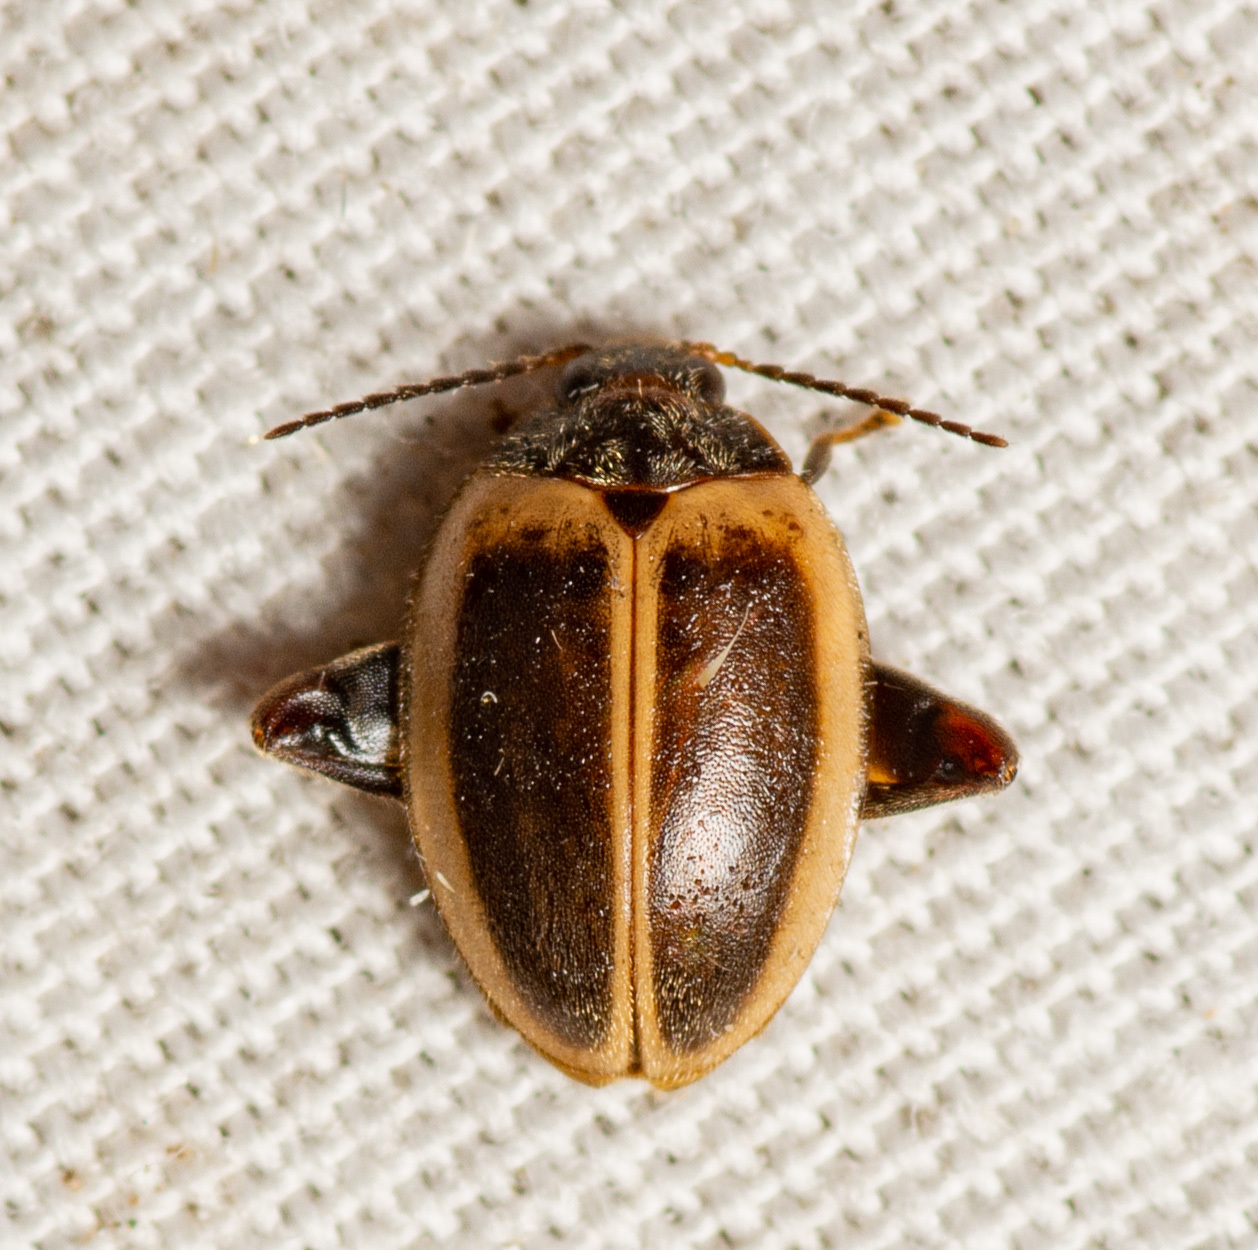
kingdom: Animalia
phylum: Arthropoda
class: Insecta
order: Coleoptera
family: Scirtidae
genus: Ora
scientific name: Ora discoidea
